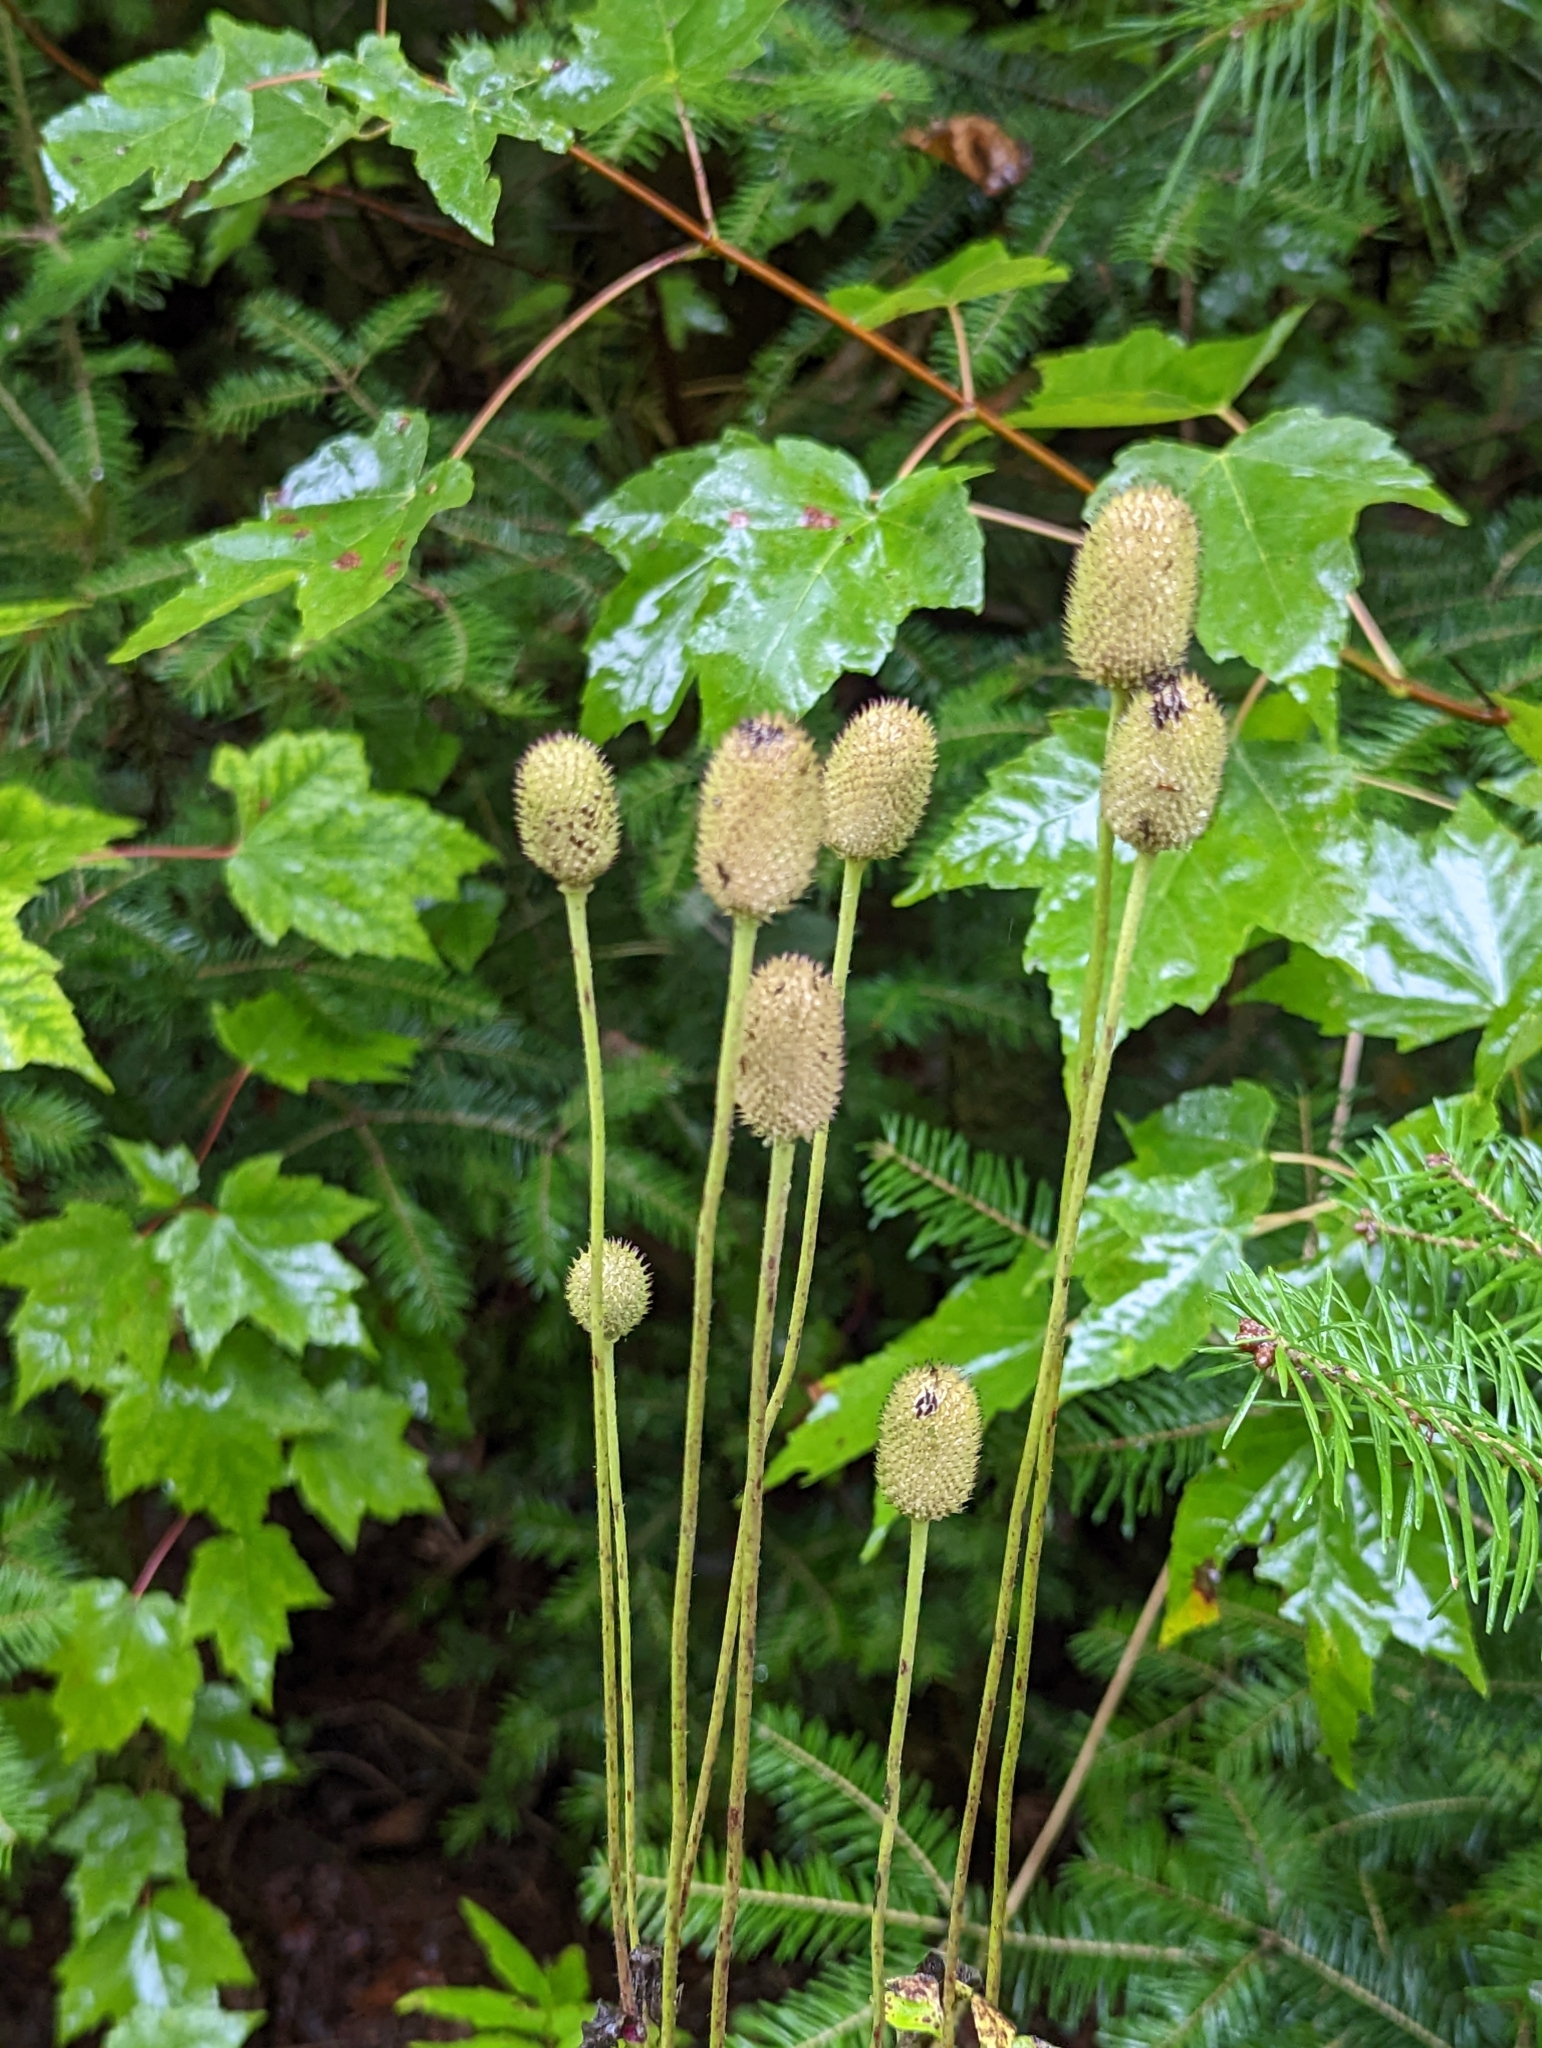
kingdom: Plantae
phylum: Tracheophyta
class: Magnoliopsida
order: Ranunculales
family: Ranunculaceae
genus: Anemone
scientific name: Anemone virginiana
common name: Tall anemone
